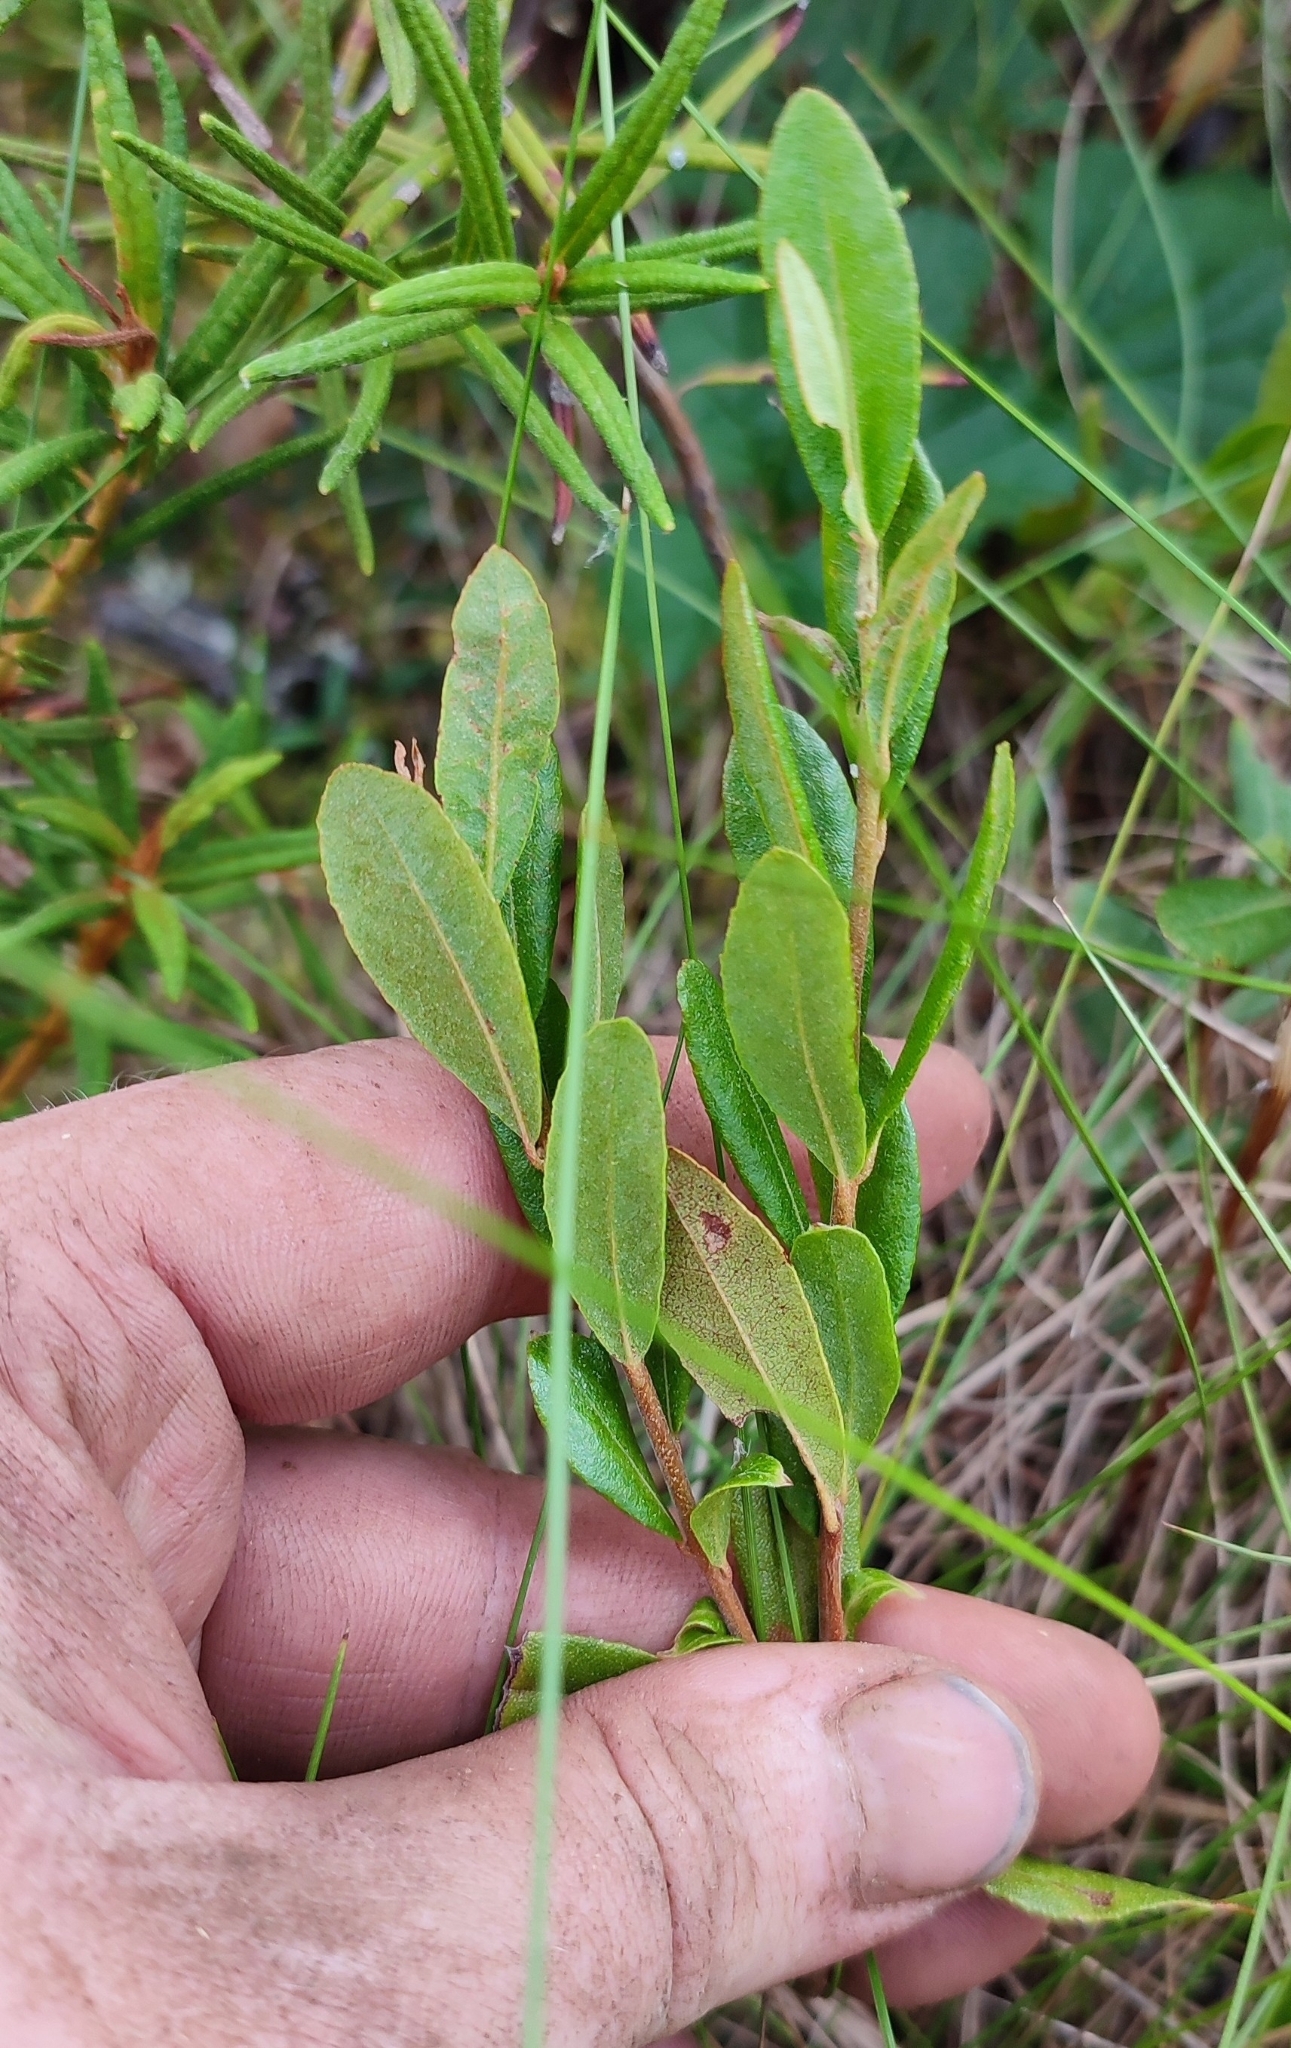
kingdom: Plantae
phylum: Tracheophyta
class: Magnoliopsida
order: Ericales
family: Ericaceae
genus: Chamaedaphne
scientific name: Chamaedaphne calyculata
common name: Leatherleaf
